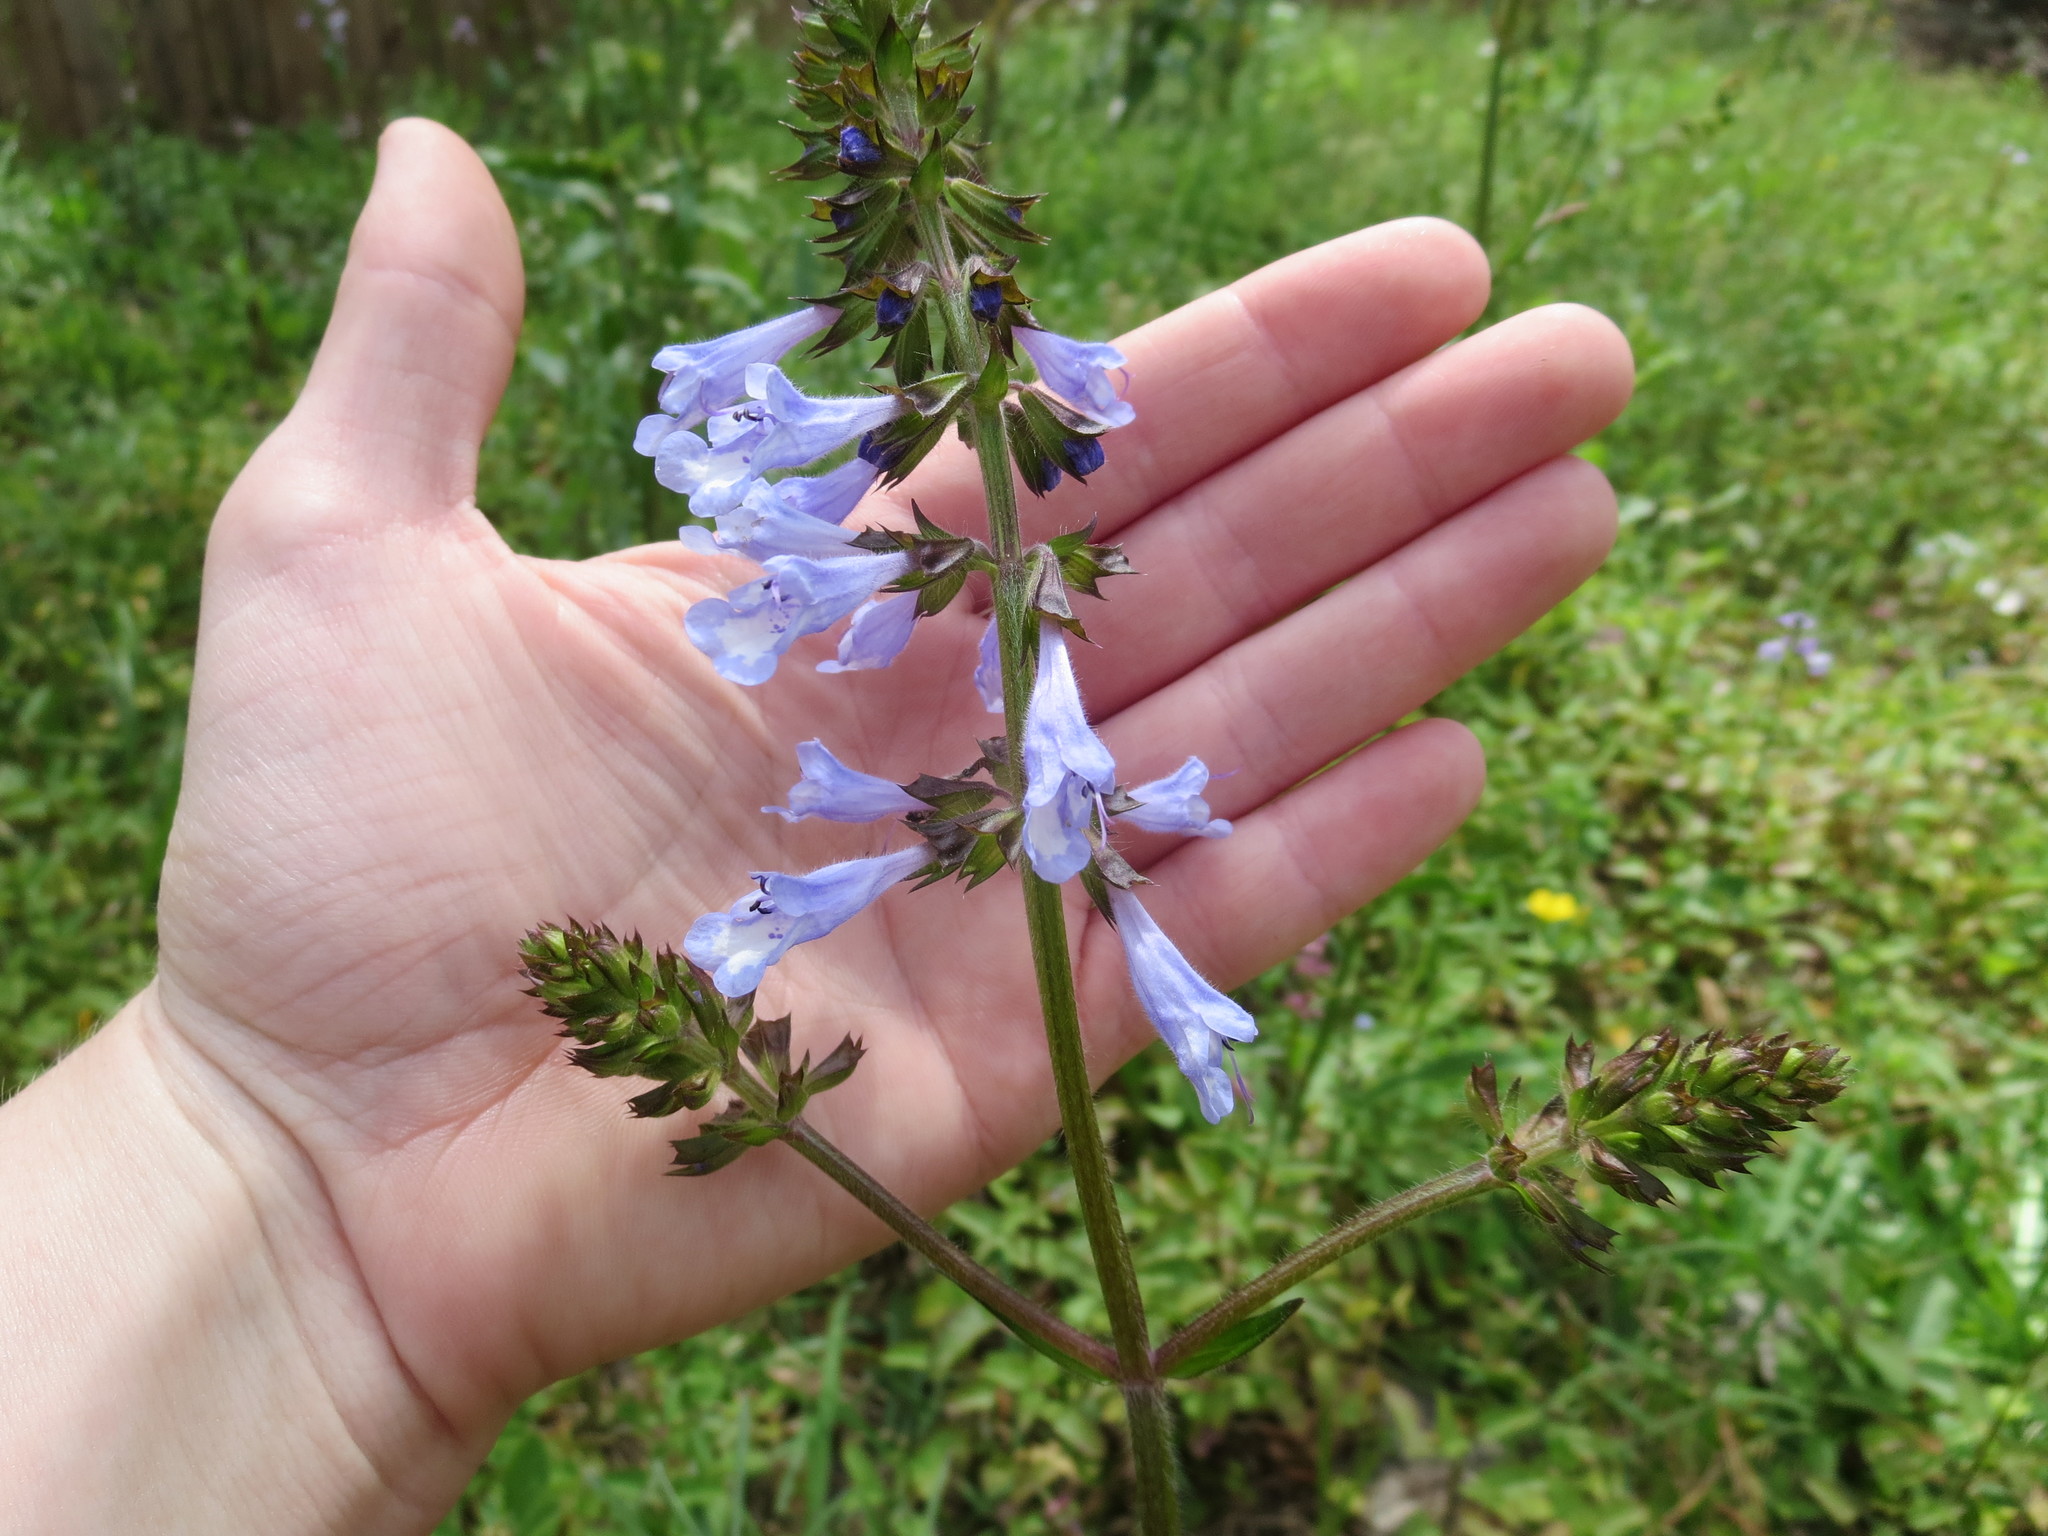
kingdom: Plantae
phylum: Tracheophyta
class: Magnoliopsida
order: Lamiales
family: Lamiaceae
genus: Salvia
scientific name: Salvia lyrata
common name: Cancerweed
